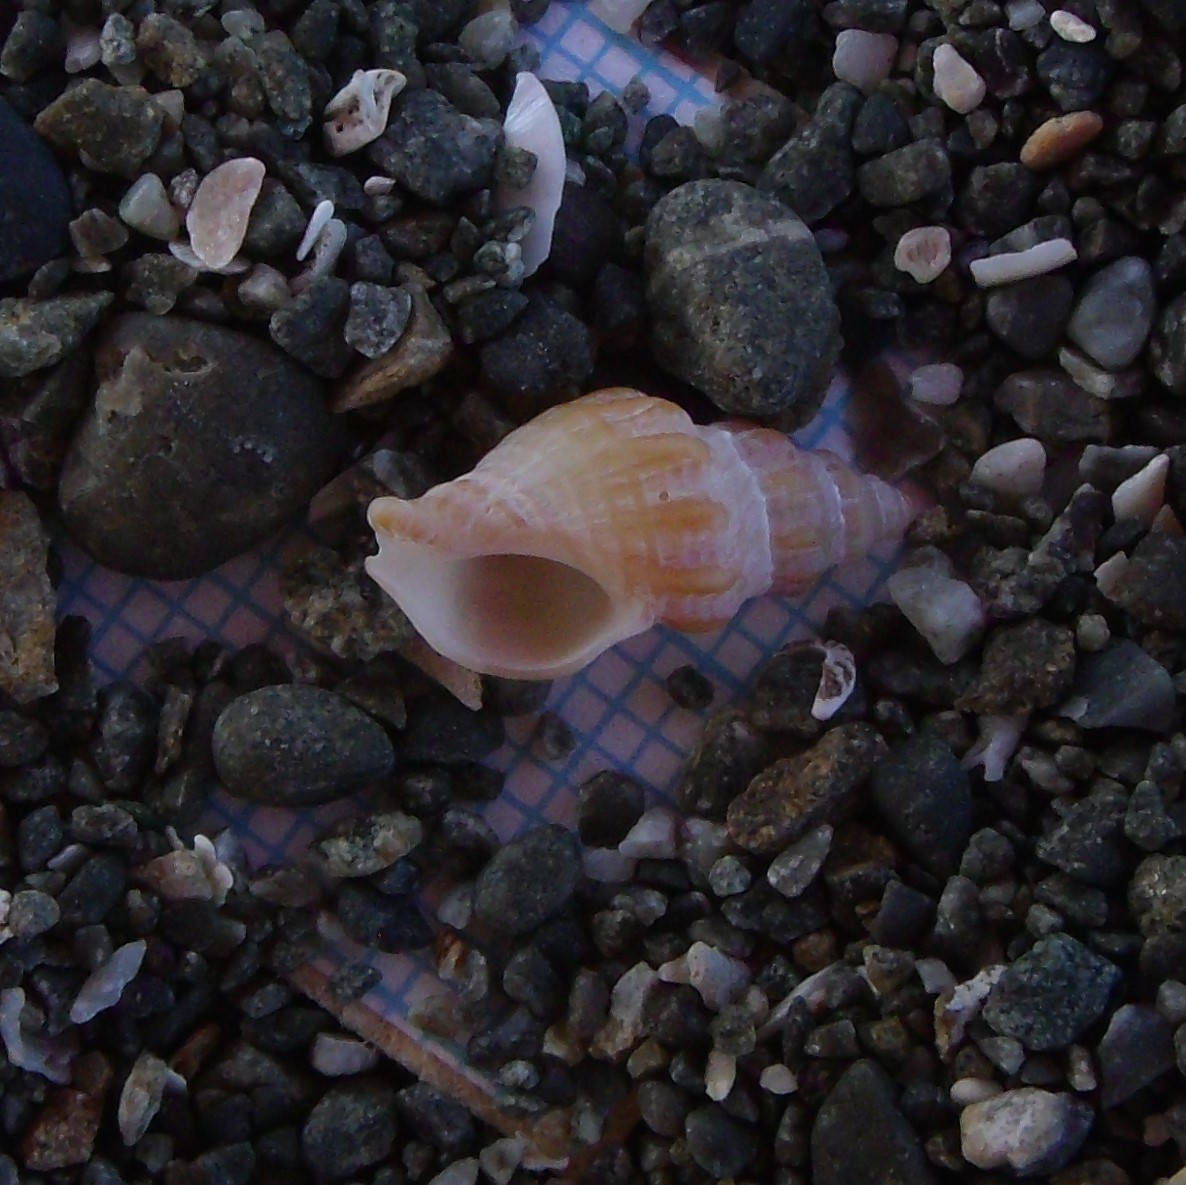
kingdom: Animalia
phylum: Mollusca
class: Gastropoda
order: Neogastropoda
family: Muricidae
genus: Lamellitrophon
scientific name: Lamellitrophon traversi
